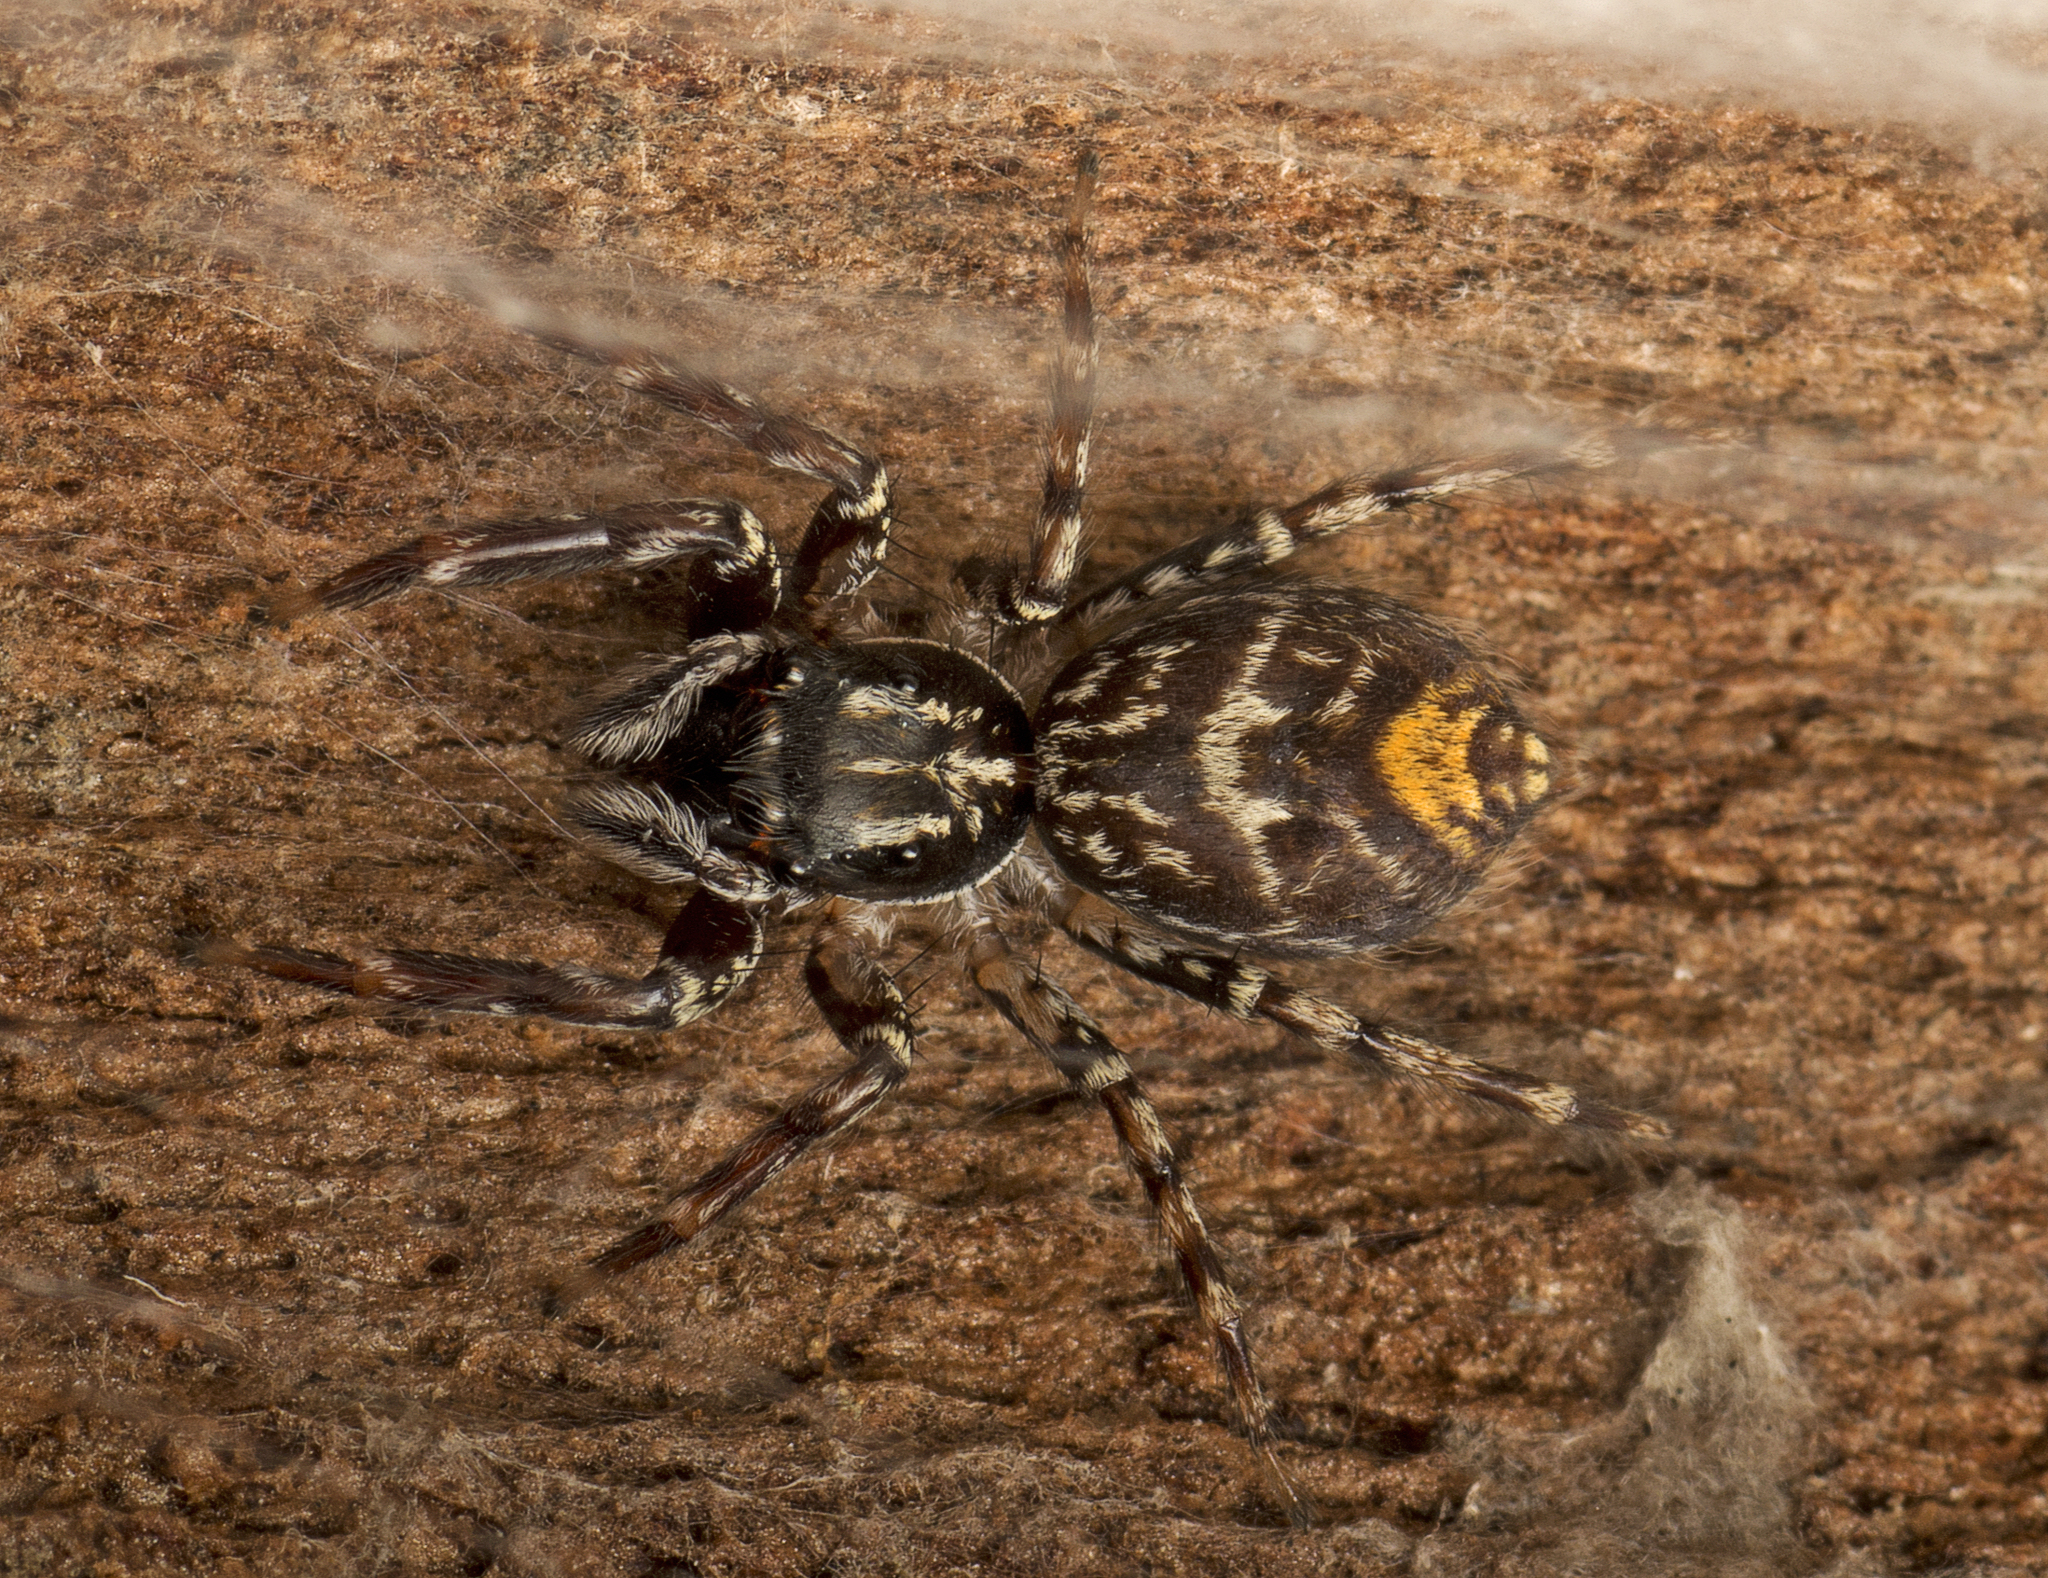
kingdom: Animalia
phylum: Arthropoda
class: Arachnida
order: Araneae
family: Salticidae
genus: Astia
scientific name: Astia
